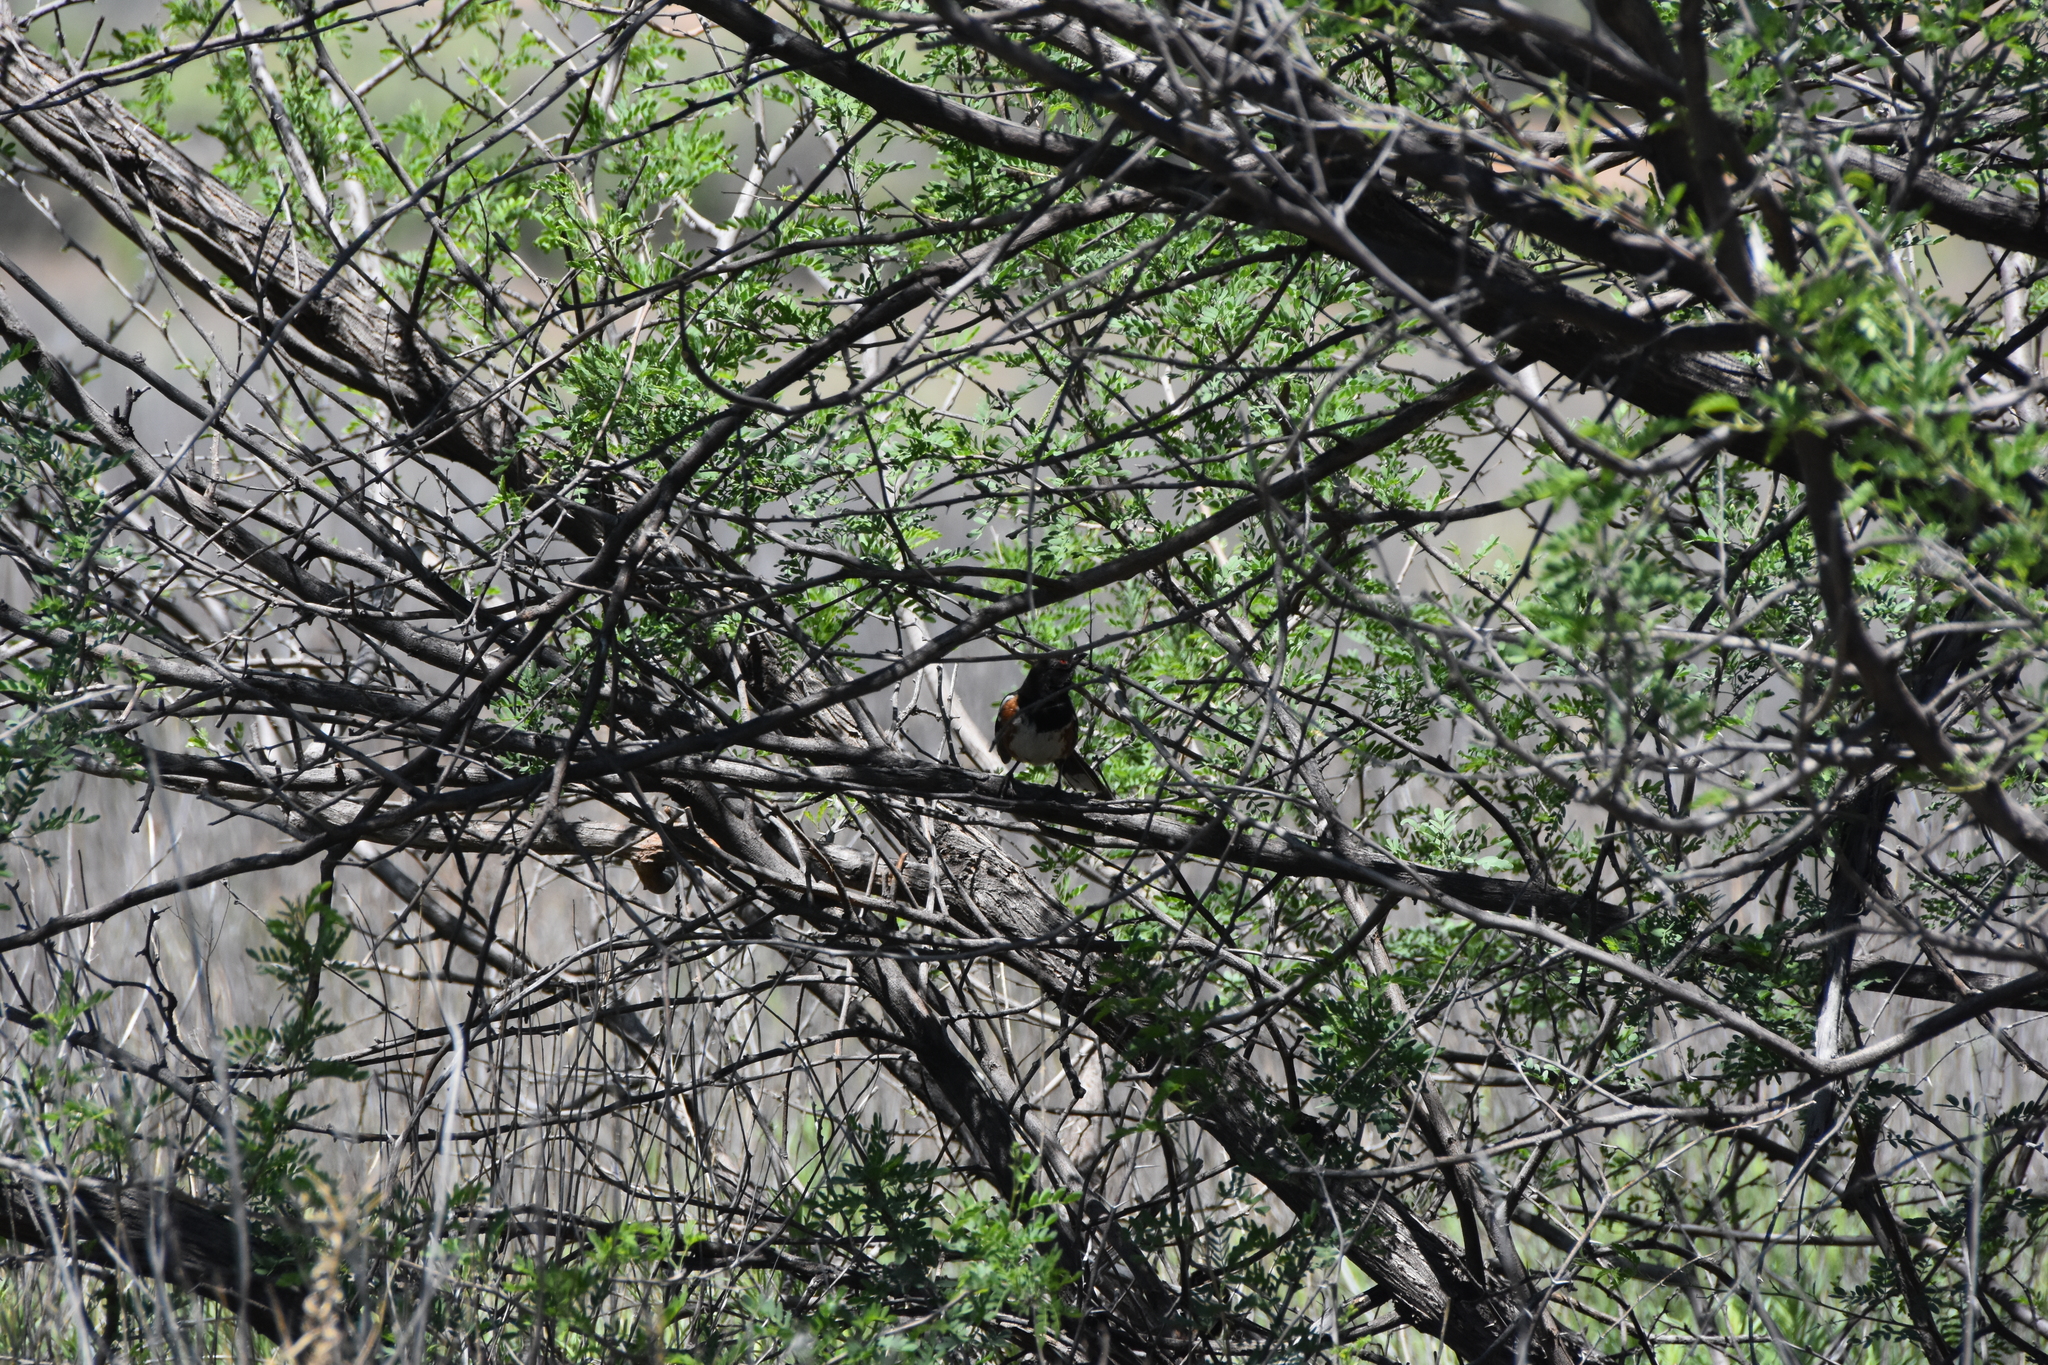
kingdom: Animalia
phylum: Chordata
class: Aves
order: Passeriformes
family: Passerellidae
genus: Pipilo
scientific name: Pipilo maculatus
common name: Spotted towhee
